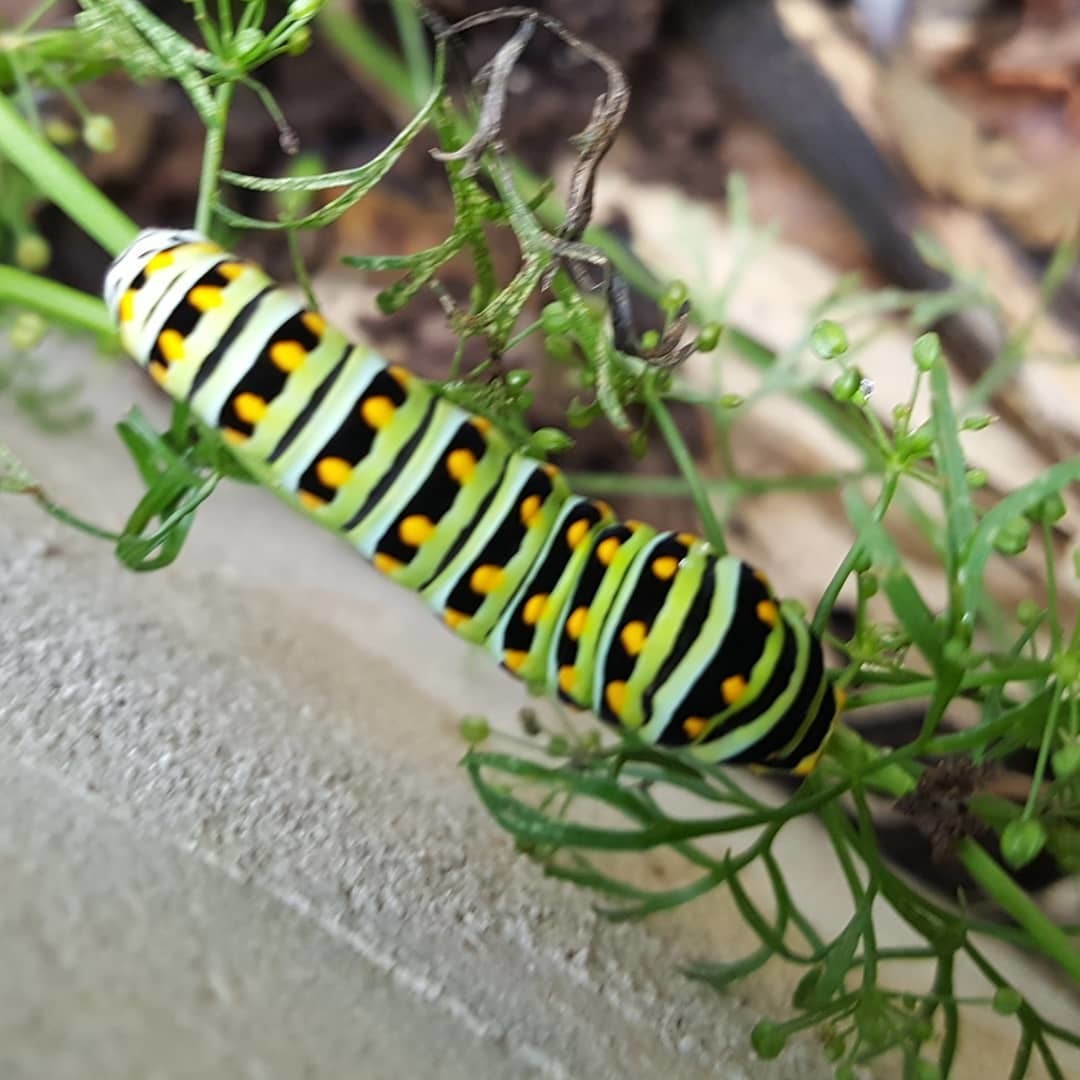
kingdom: Animalia
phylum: Arthropoda
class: Insecta
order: Lepidoptera
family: Papilionidae
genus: Papilio
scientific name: Papilio polyxenes
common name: Black swallowtail
